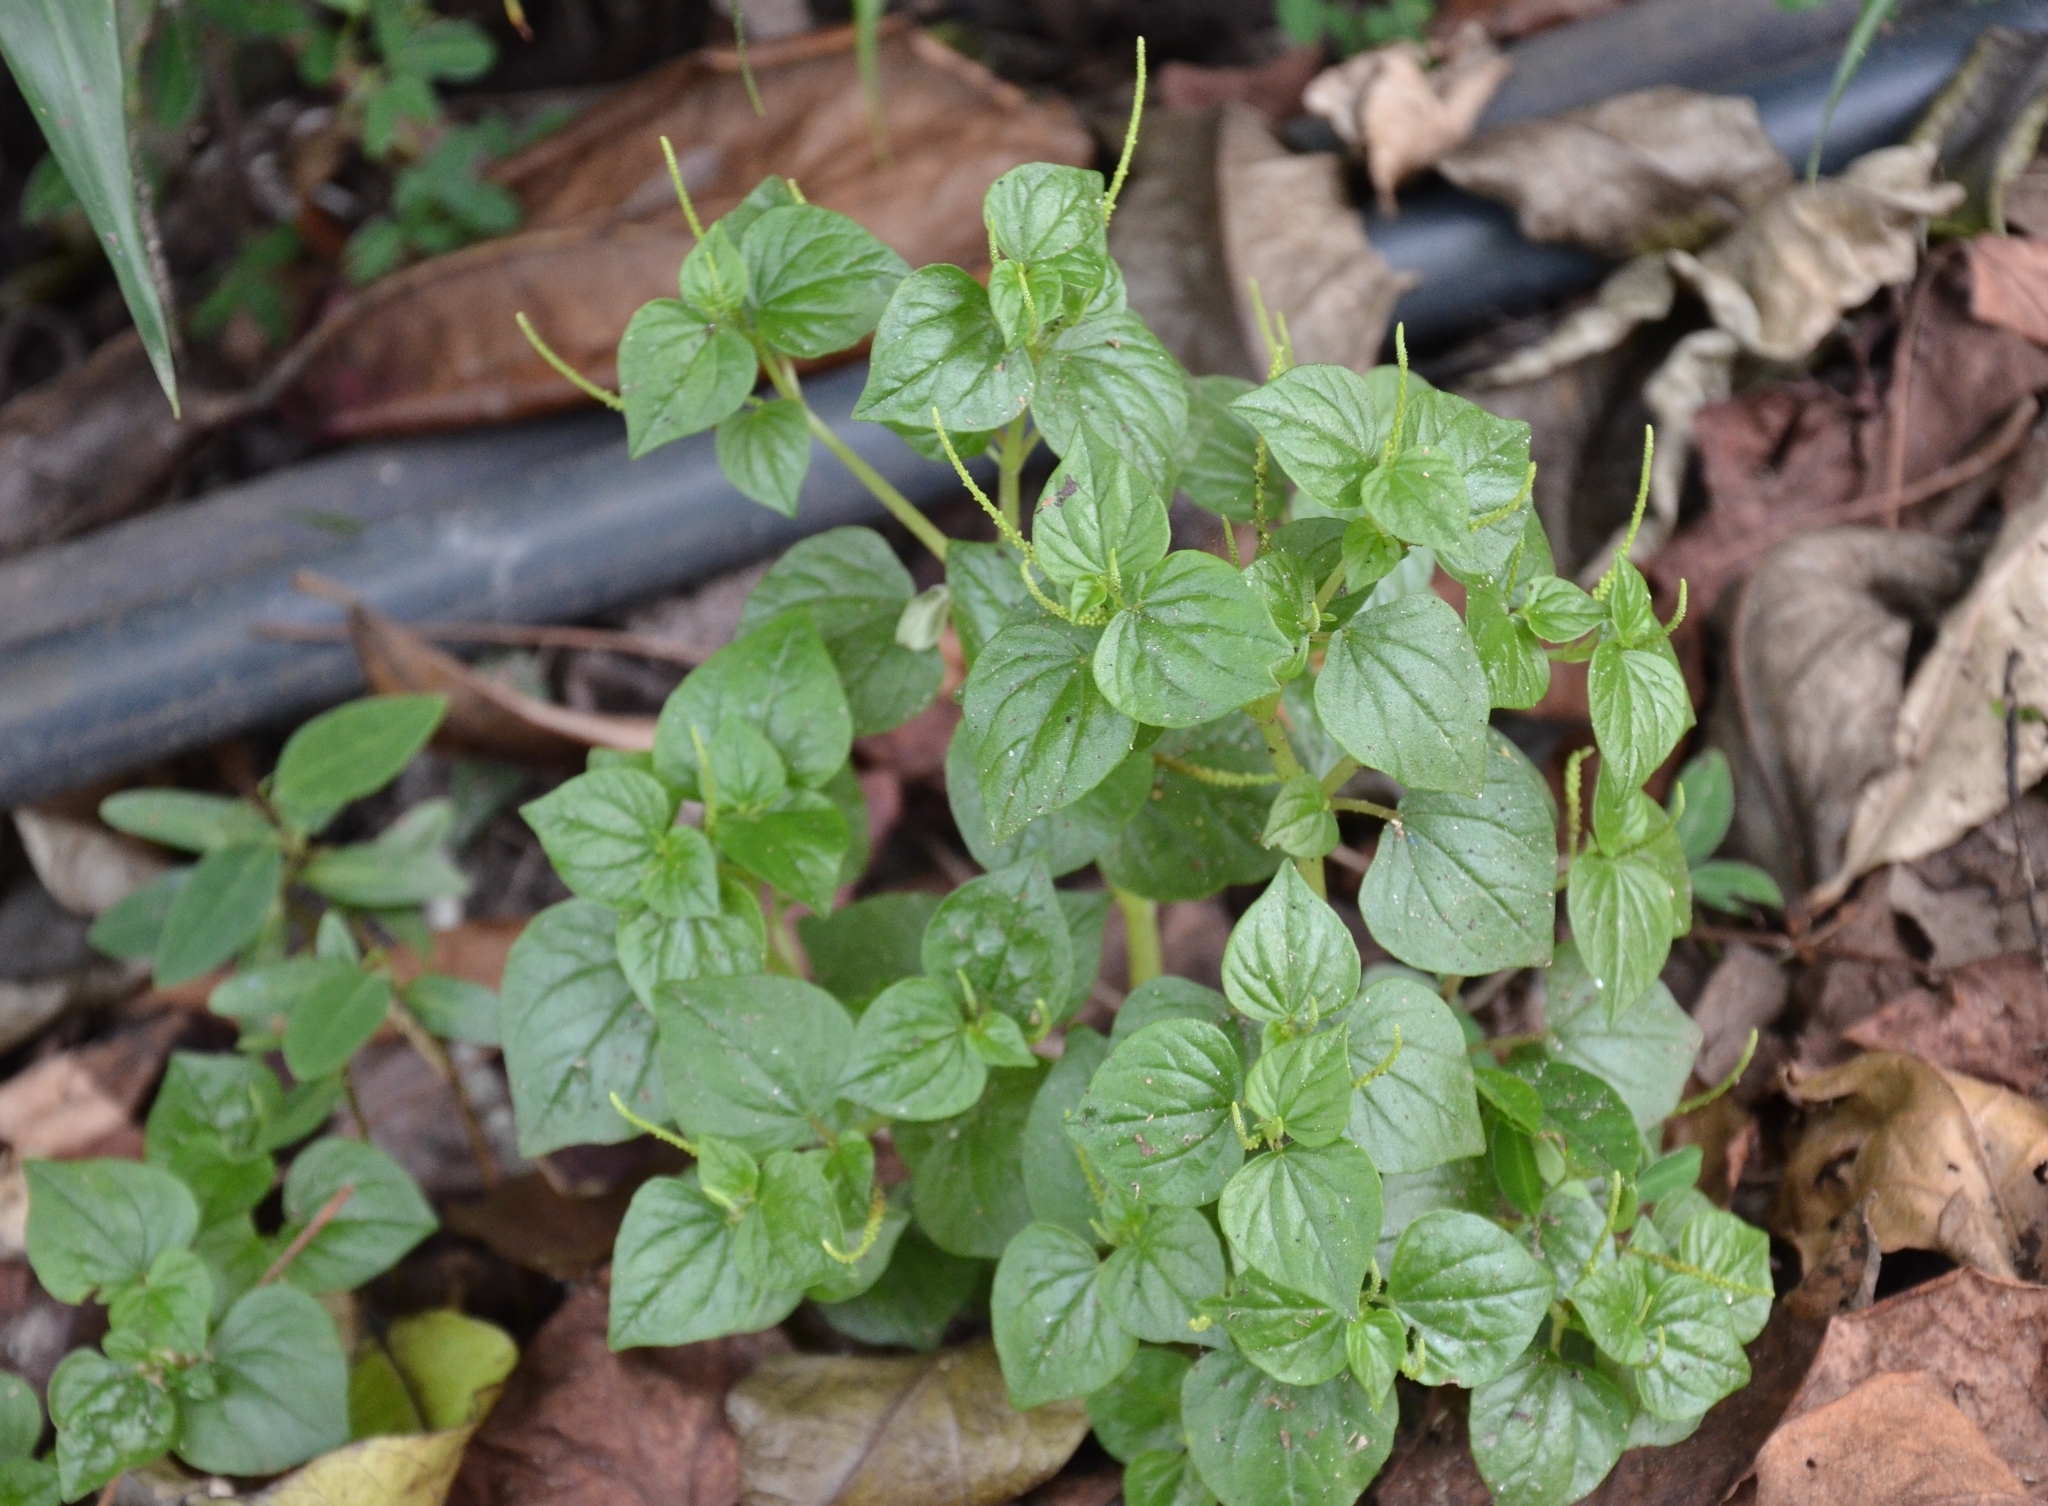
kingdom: Plantae
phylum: Tracheophyta
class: Magnoliopsida
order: Piperales
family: Piperaceae
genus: Peperomia
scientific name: Peperomia pellucida
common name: Man to man
